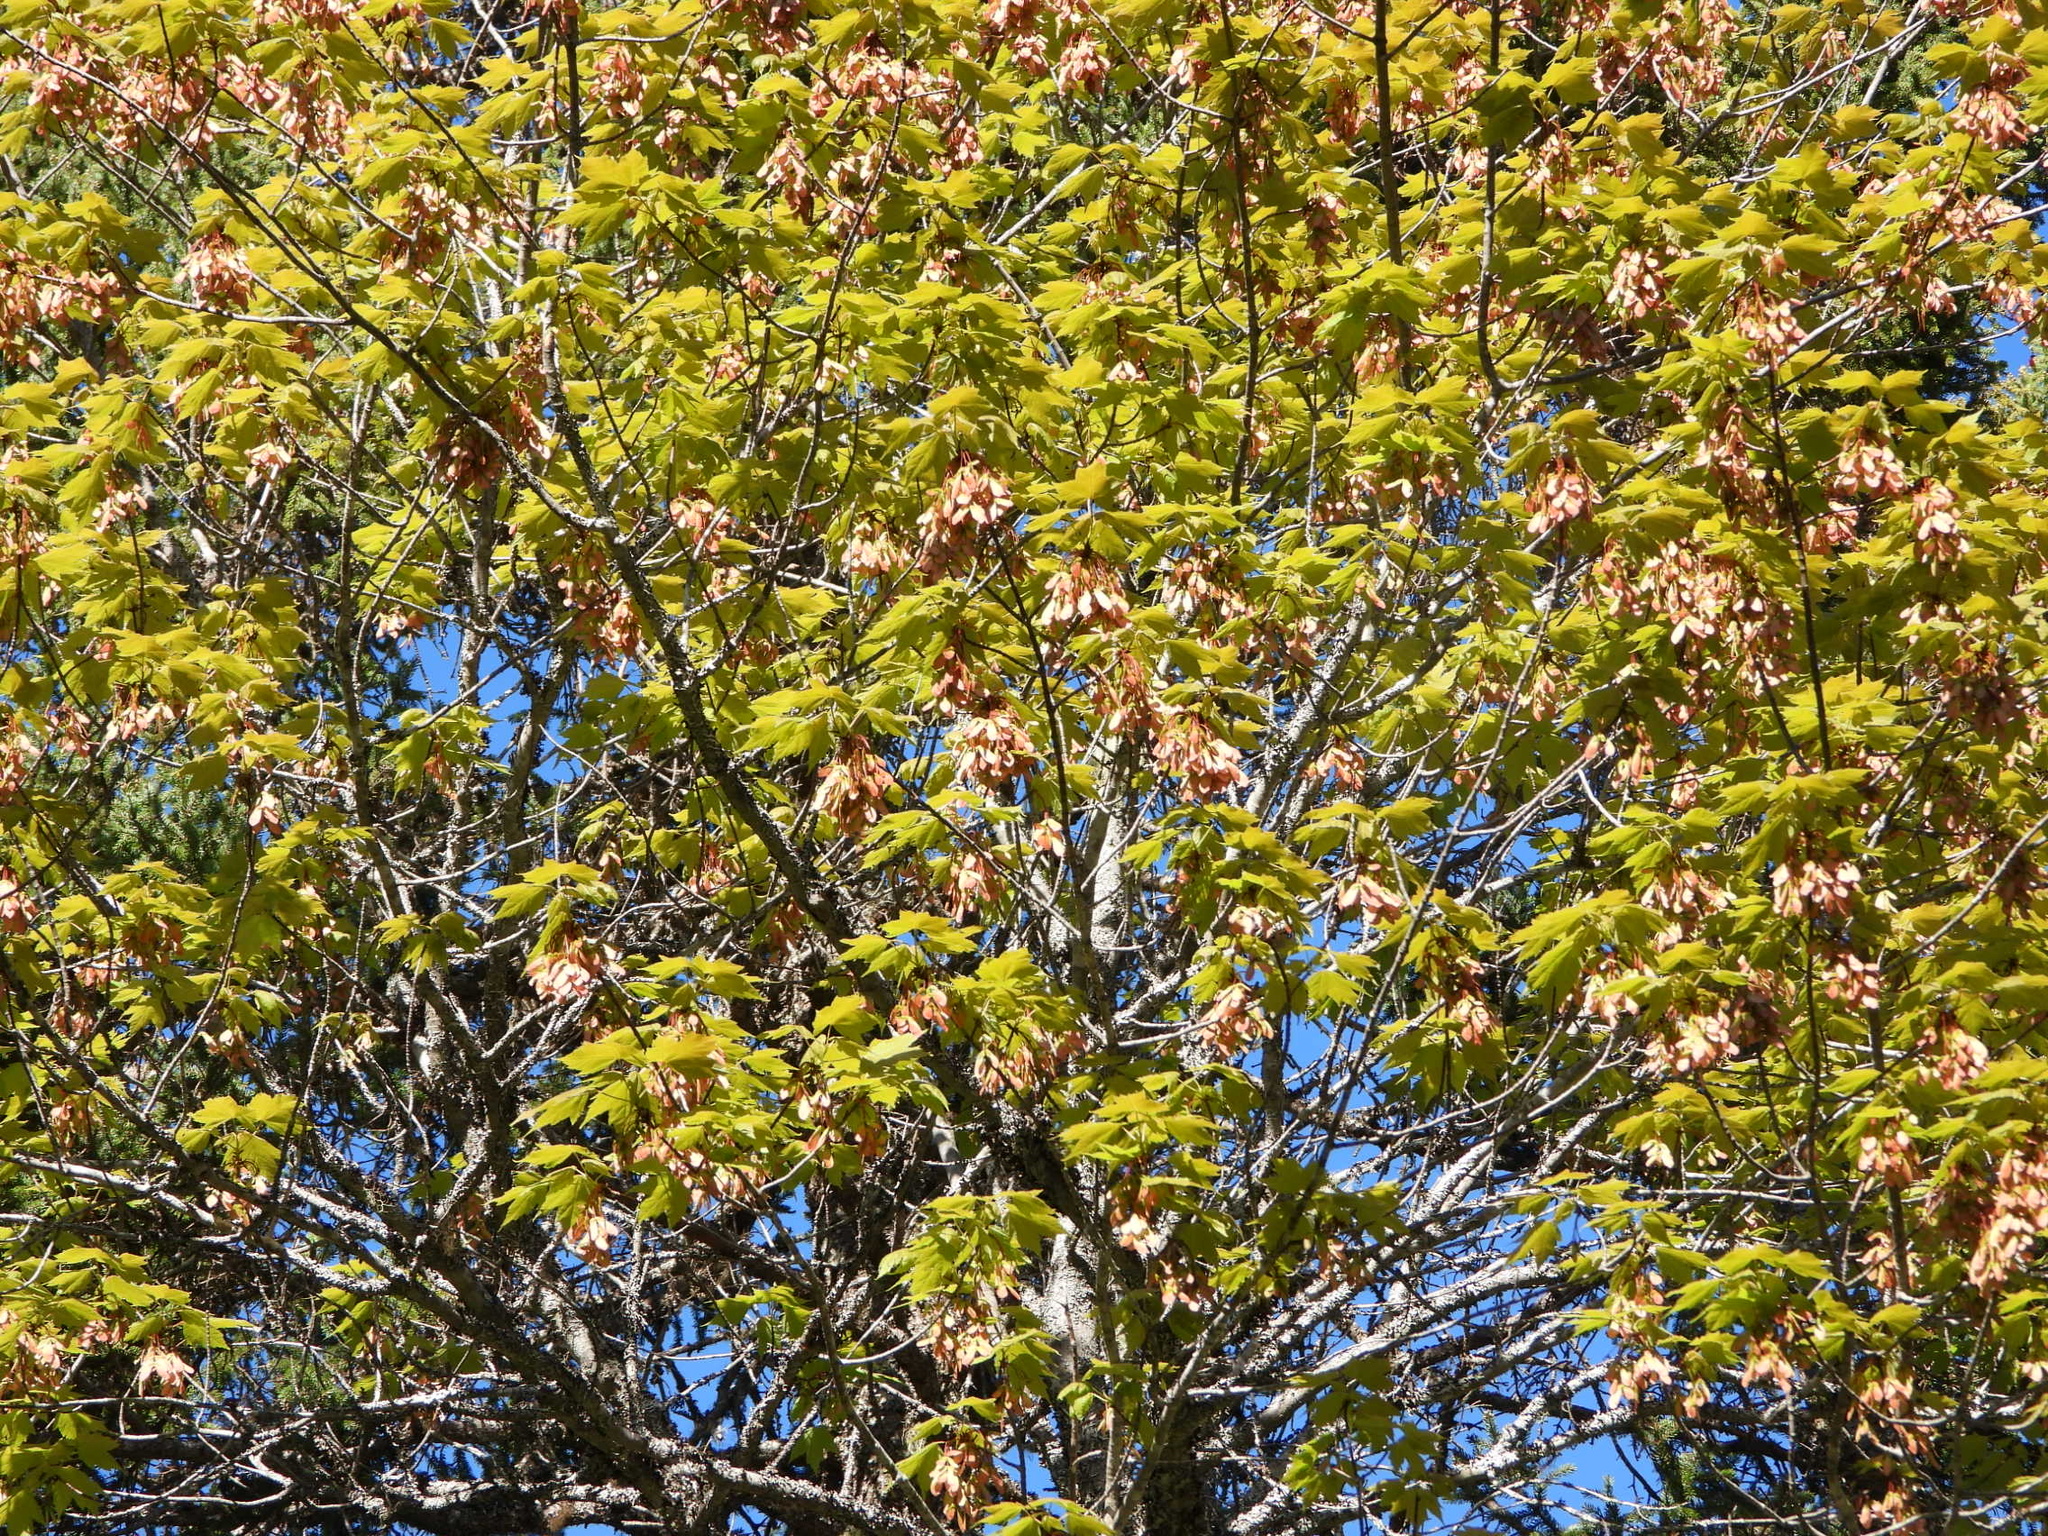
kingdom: Plantae
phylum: Tracheophyta
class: Magnoliopsida
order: Sapindales
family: Sapindaceae
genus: Acer
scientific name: Acer rubrum
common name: Red maple
